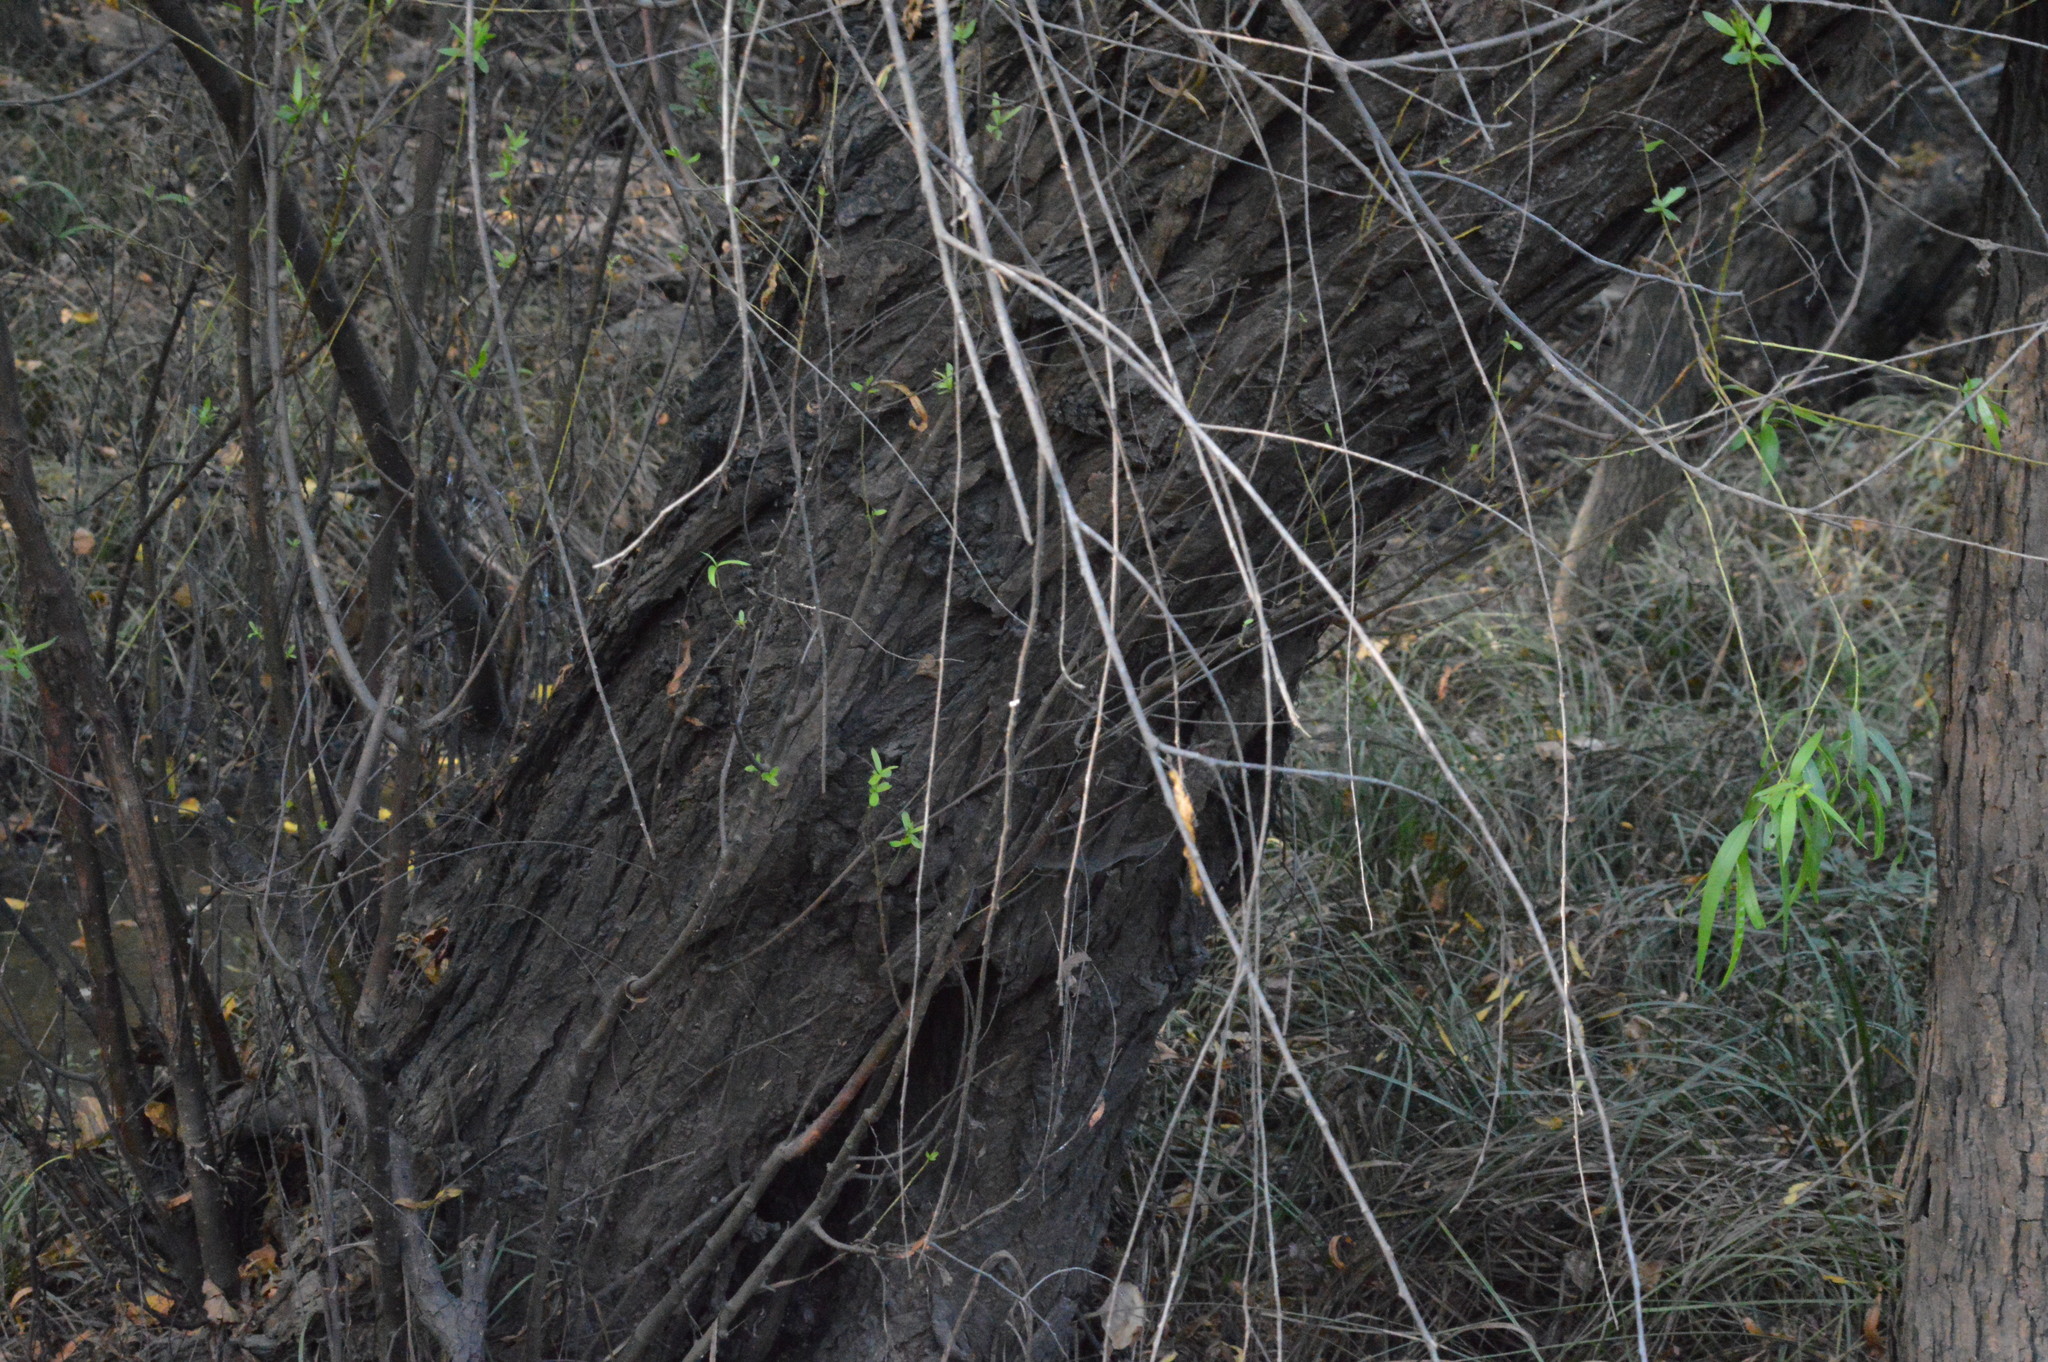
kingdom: Plantae
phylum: Tracheophyta
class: Magnoliopsida
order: Malpighiales
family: Salicaceae
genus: Salix
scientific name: Salix nigra
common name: Black willow
